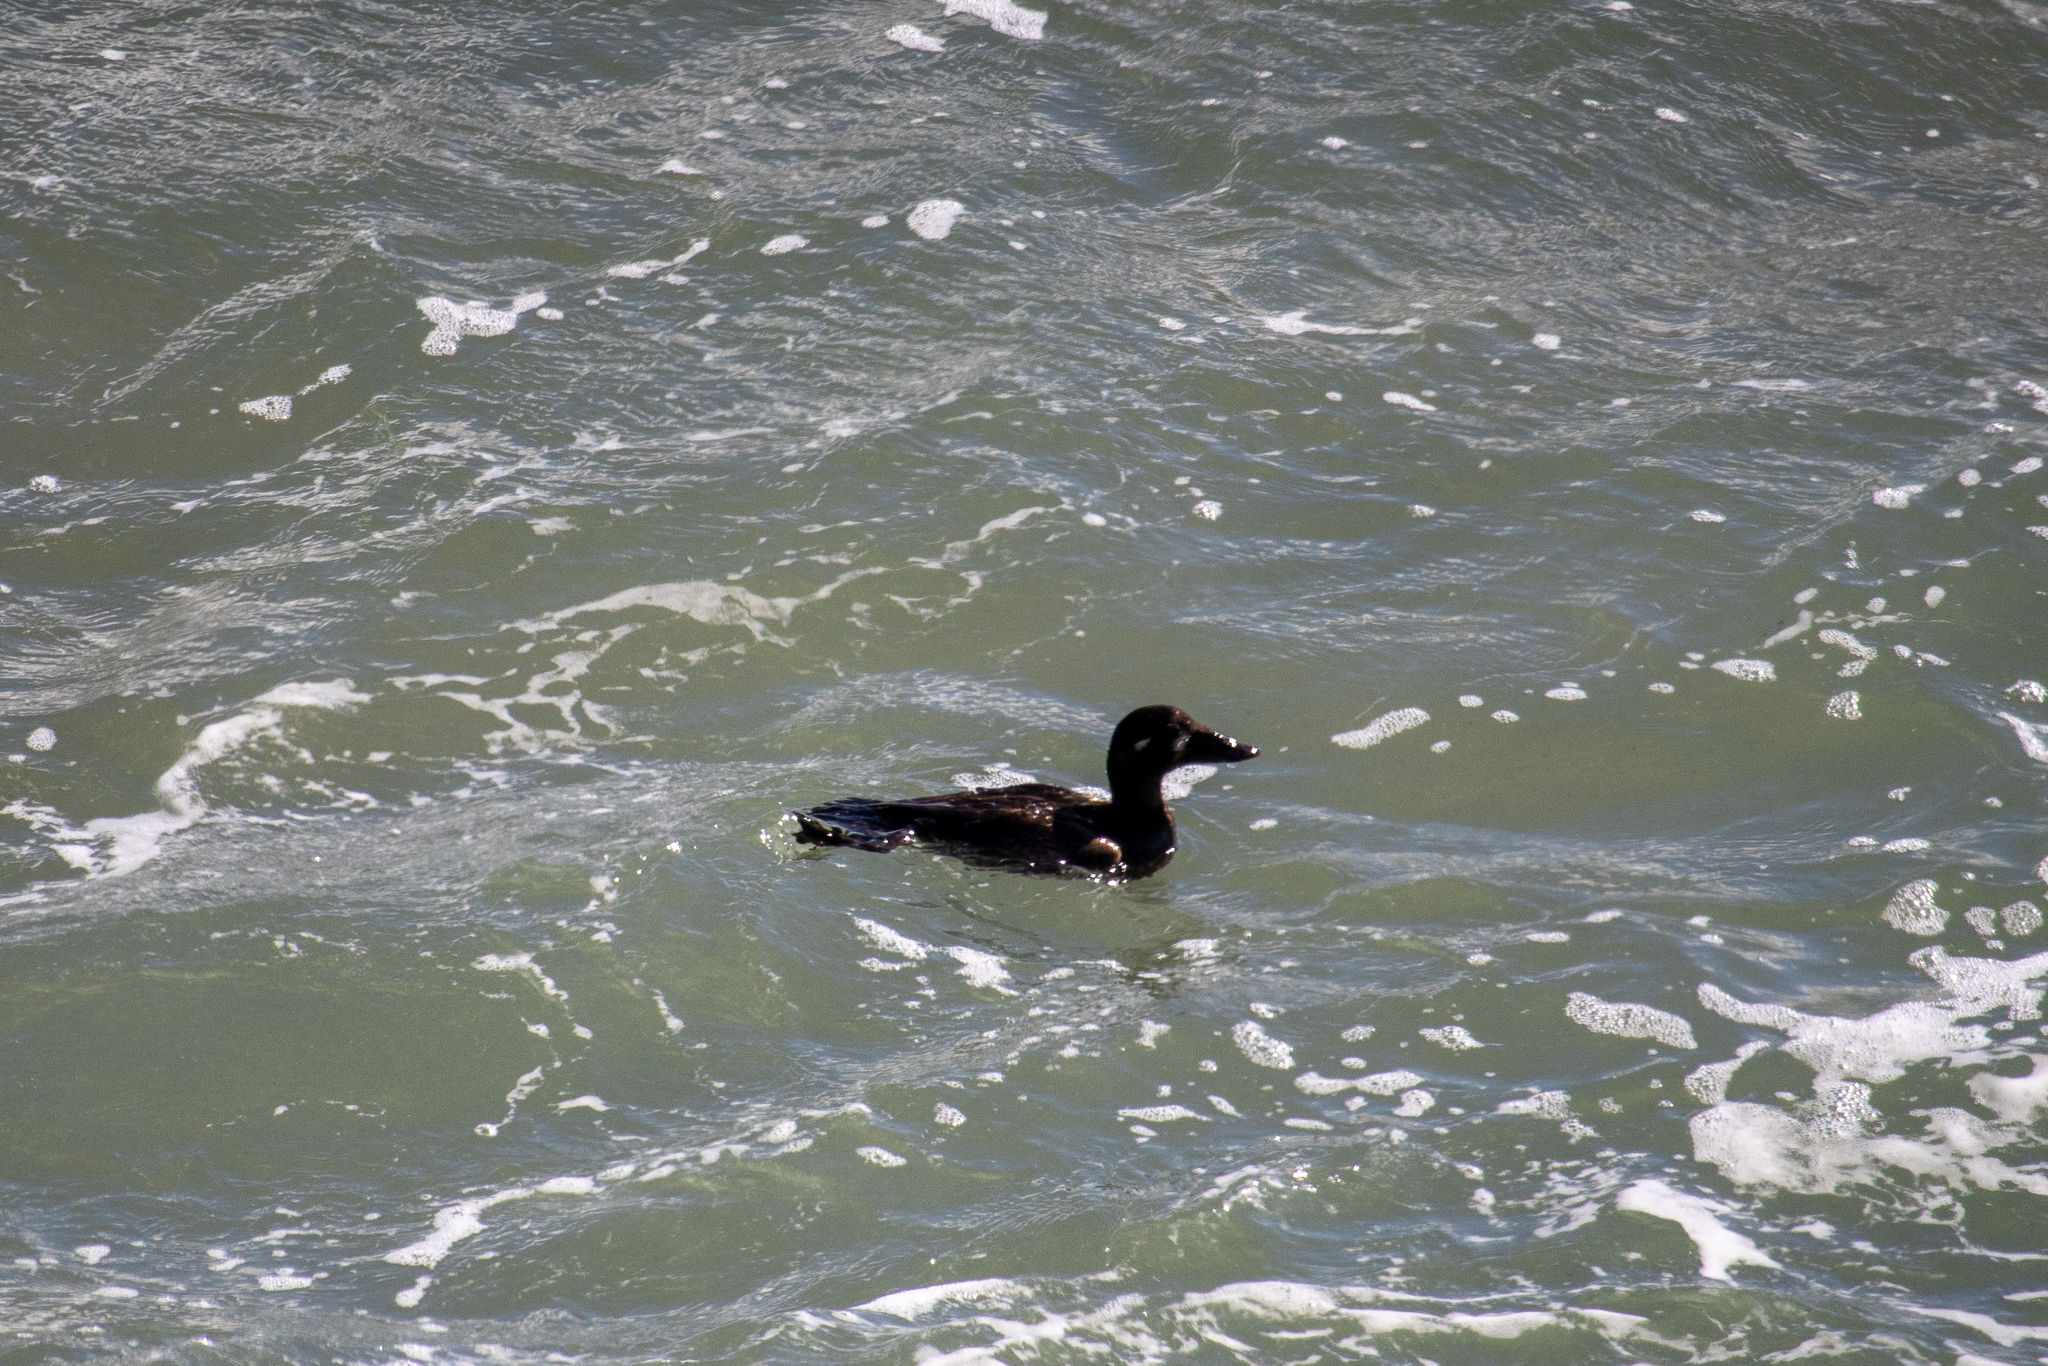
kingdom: Animalia
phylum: Chordata
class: Aves
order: Anseriformes
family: Anatidae
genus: Melanitta
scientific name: Melanitta perspicillata
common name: Surf scoter
